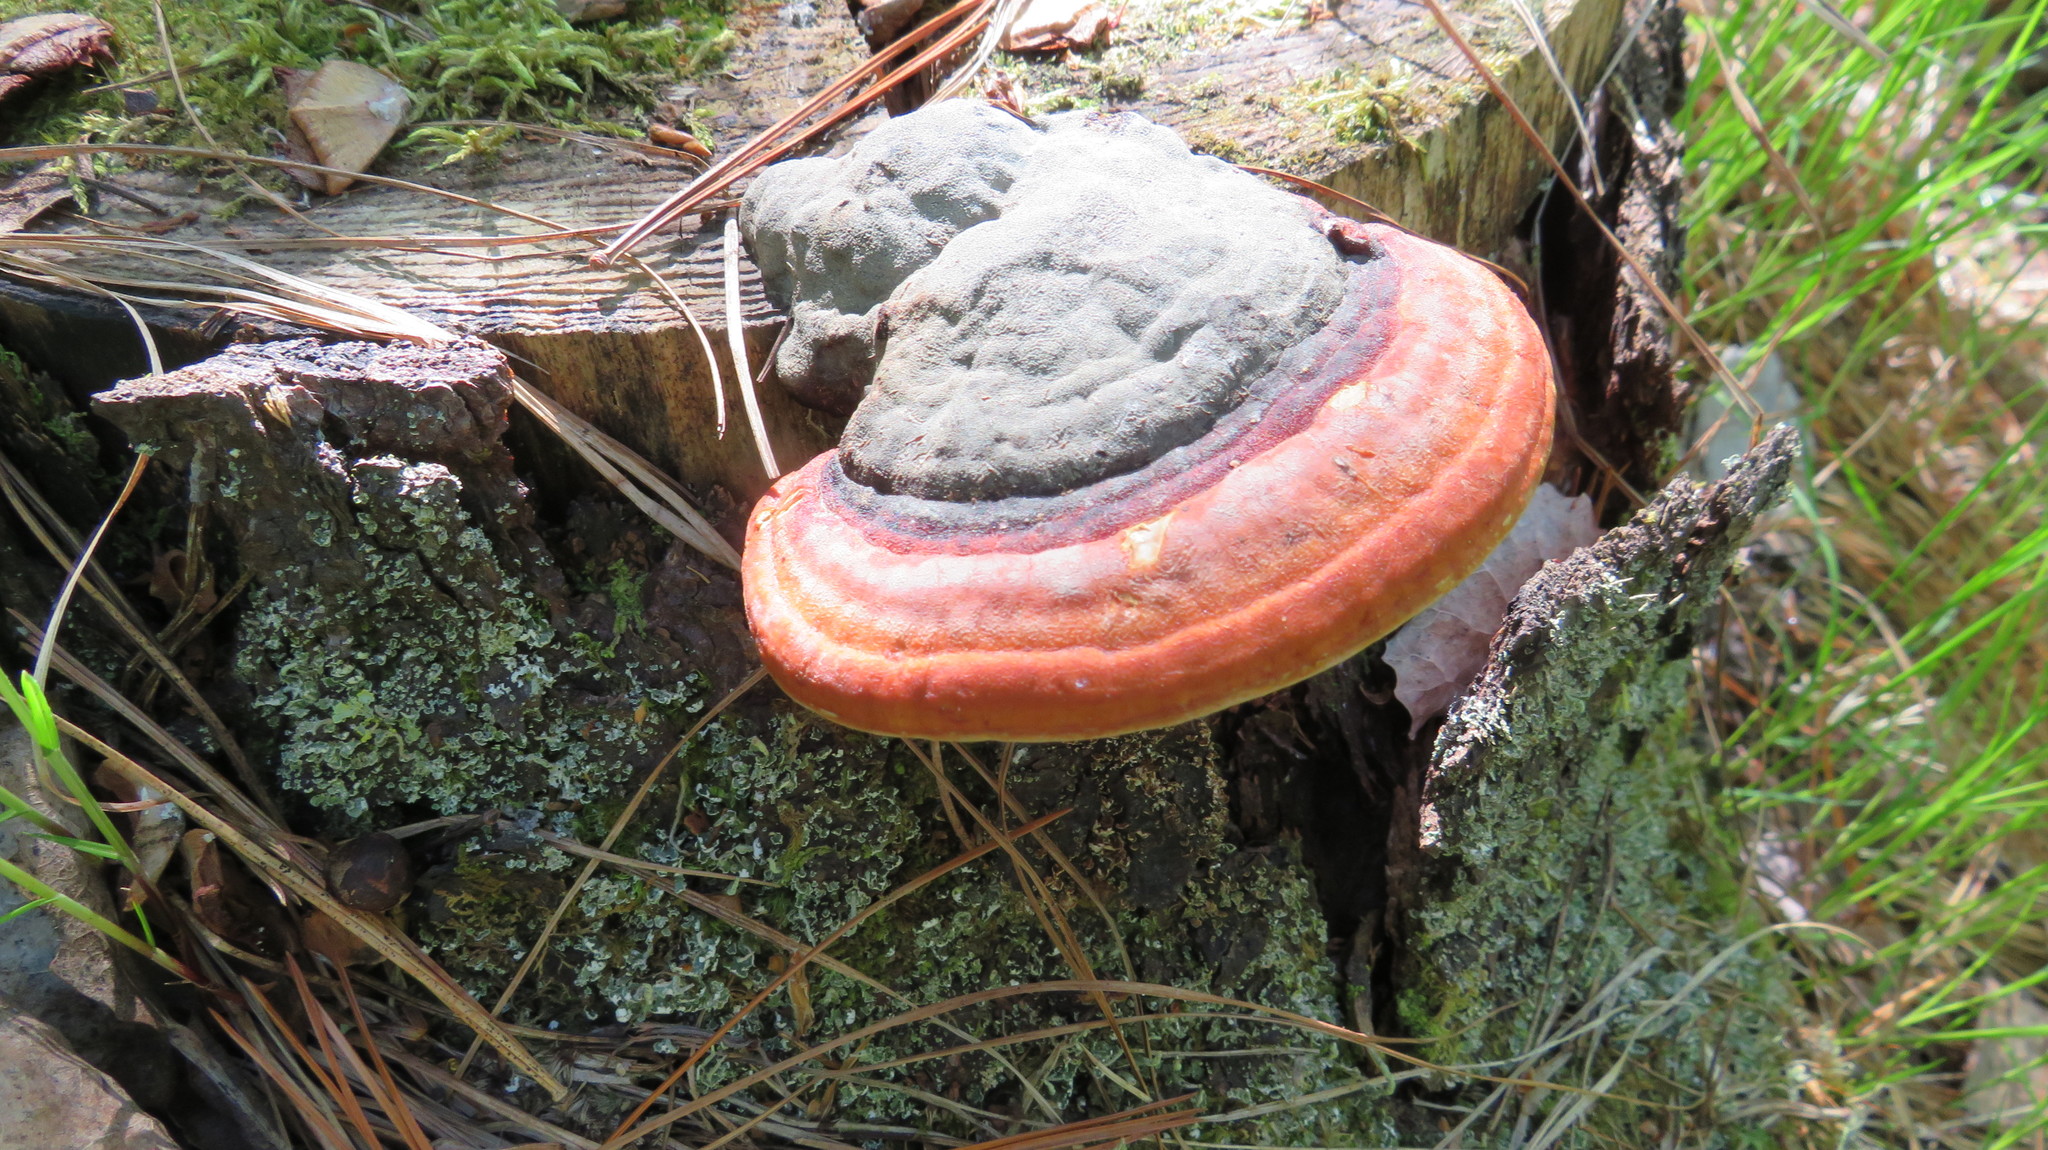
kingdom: Fungi
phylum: Basidiomycota
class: Agaricomycetes
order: Polyporales
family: Fomitopsidaceae
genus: Fomitopsis
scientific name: Fomitopsis pinicola
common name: Red-belted bracket
